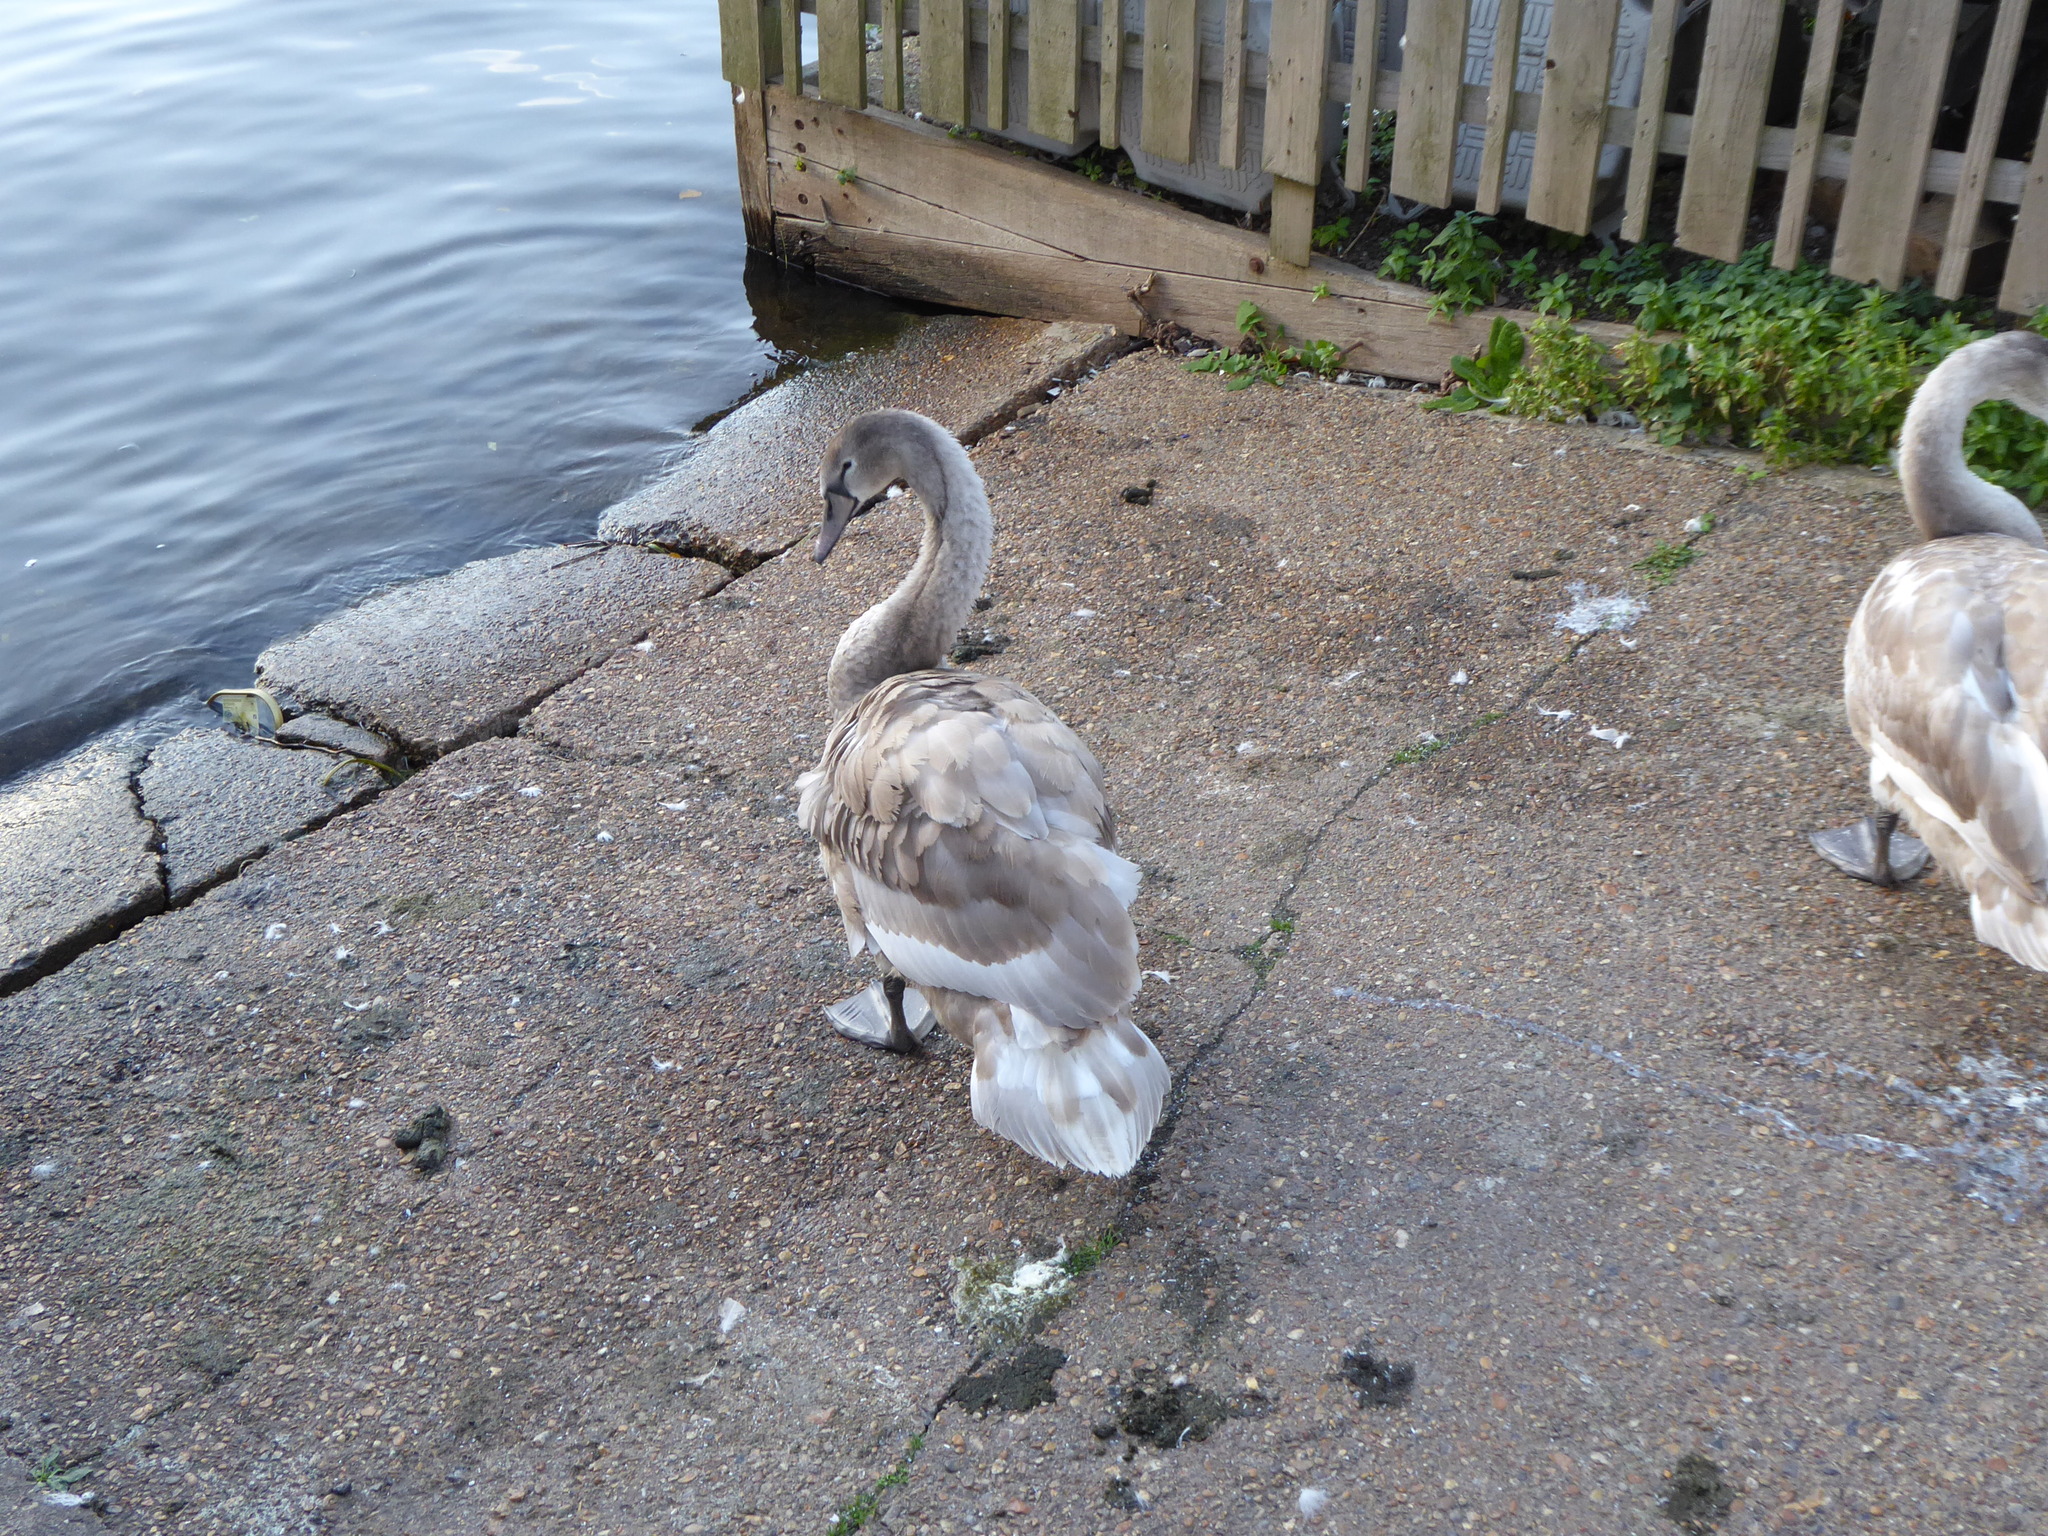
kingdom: Animalia
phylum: Chordata
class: Aves
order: Anseriformes
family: Anatidae
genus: Cygnus
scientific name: Cygnus olor
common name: Mute swan
